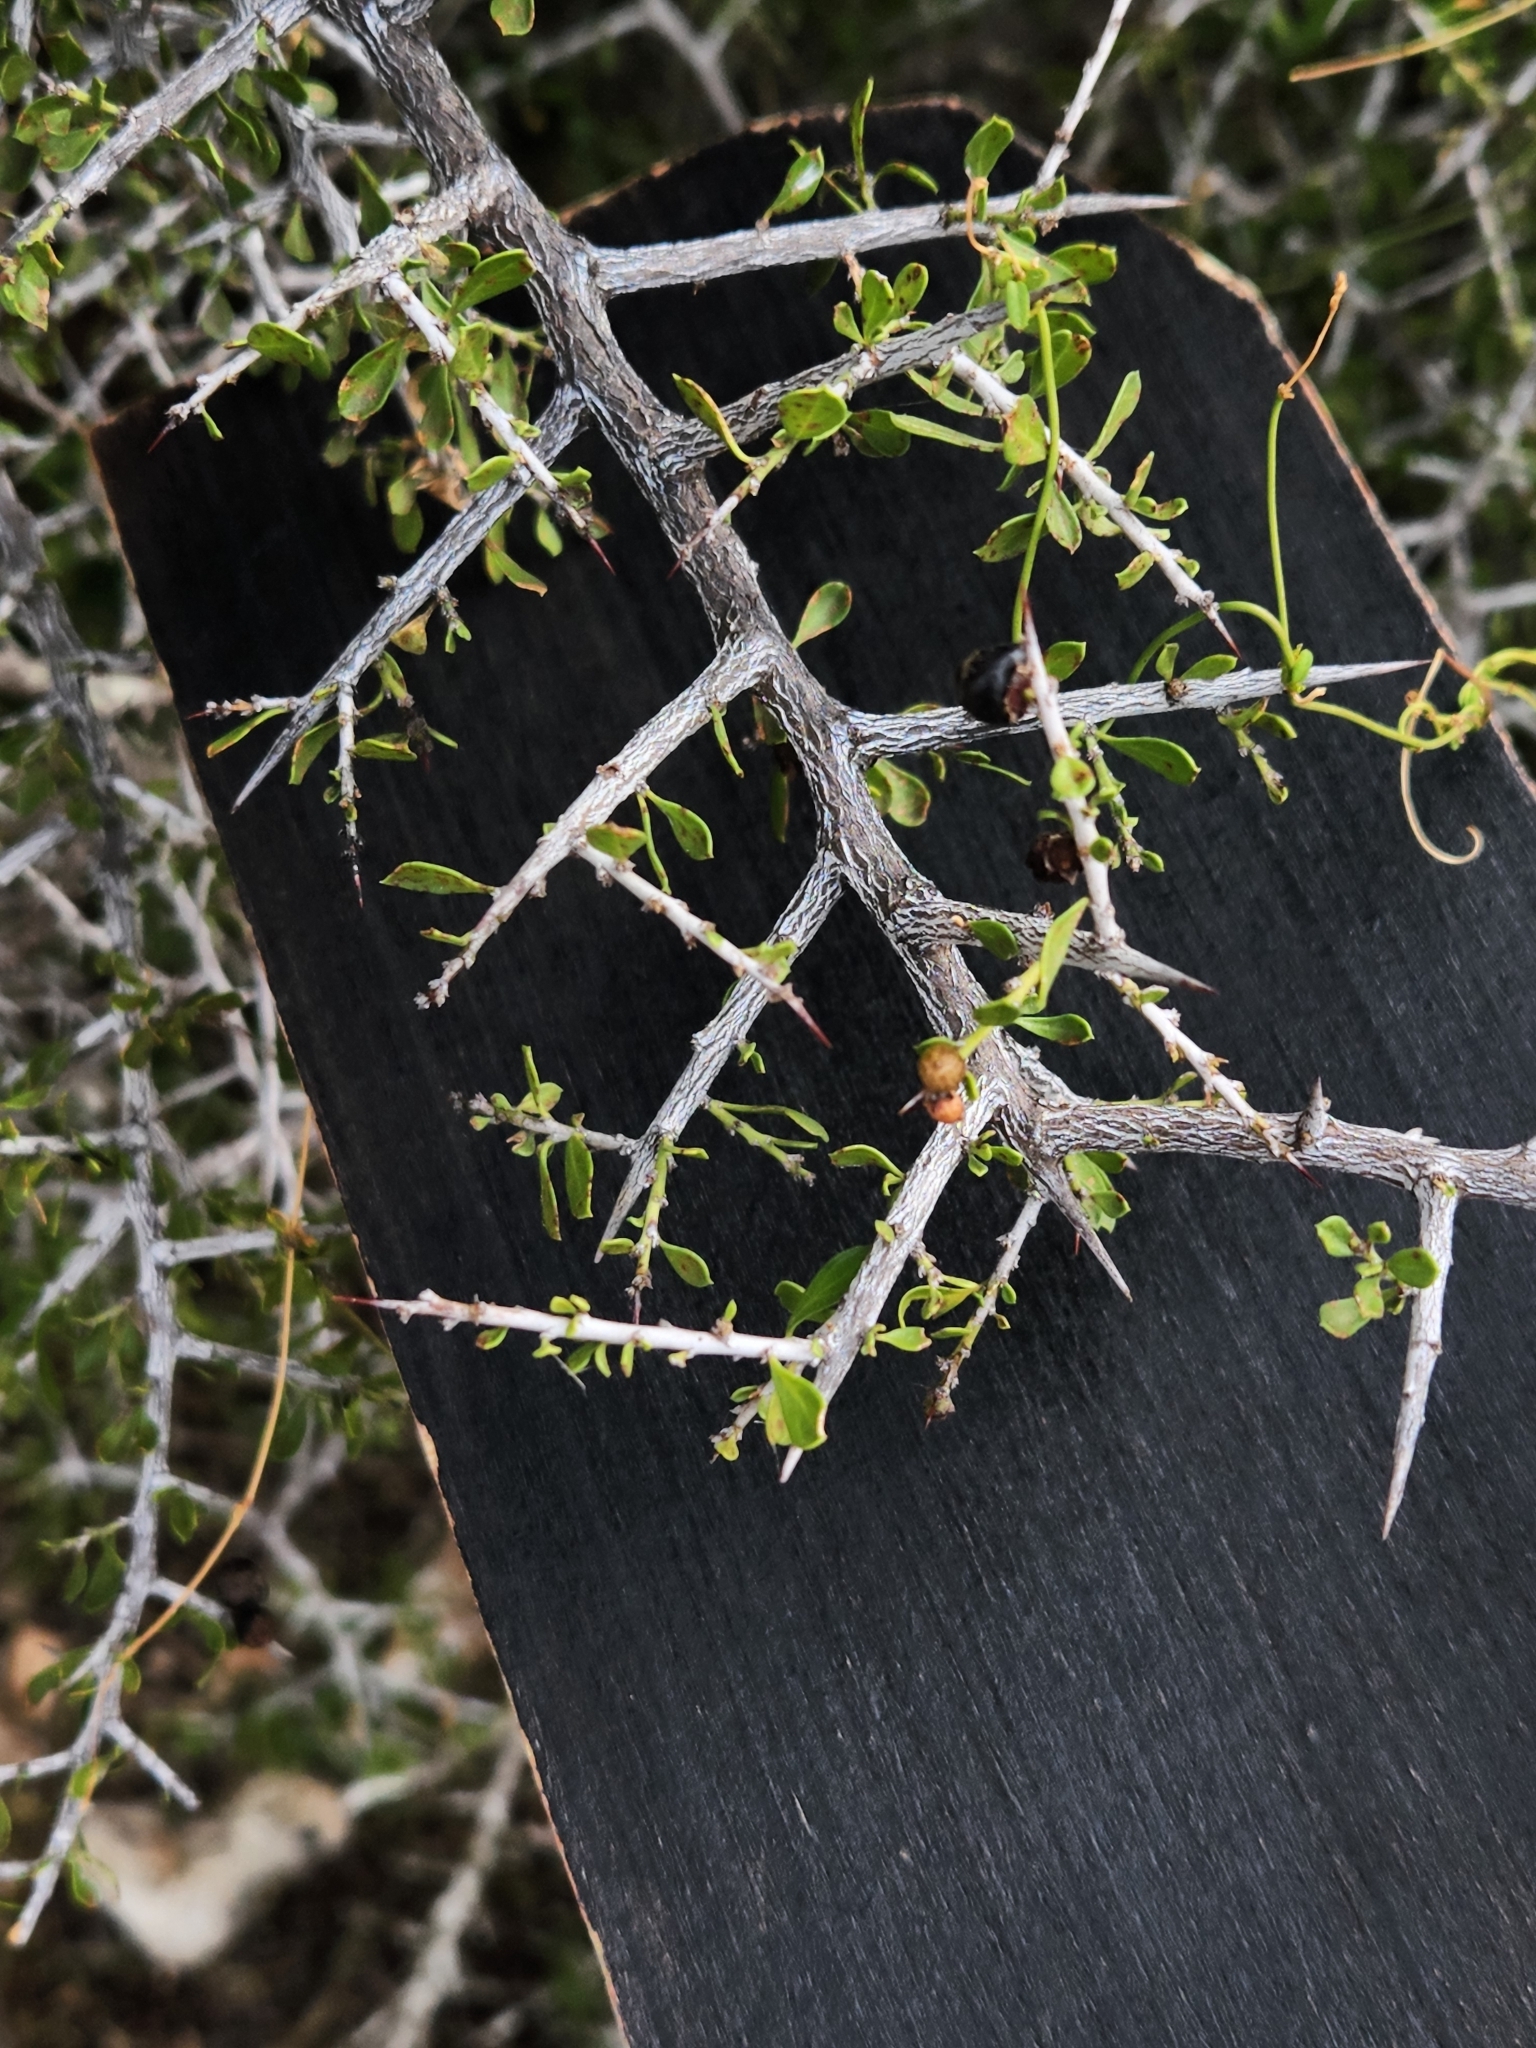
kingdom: Plantae
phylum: Tracheophyta
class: Magnoliopsida
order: Rosales
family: Rhamnaceae
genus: Condalia
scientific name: Condalia viridis
